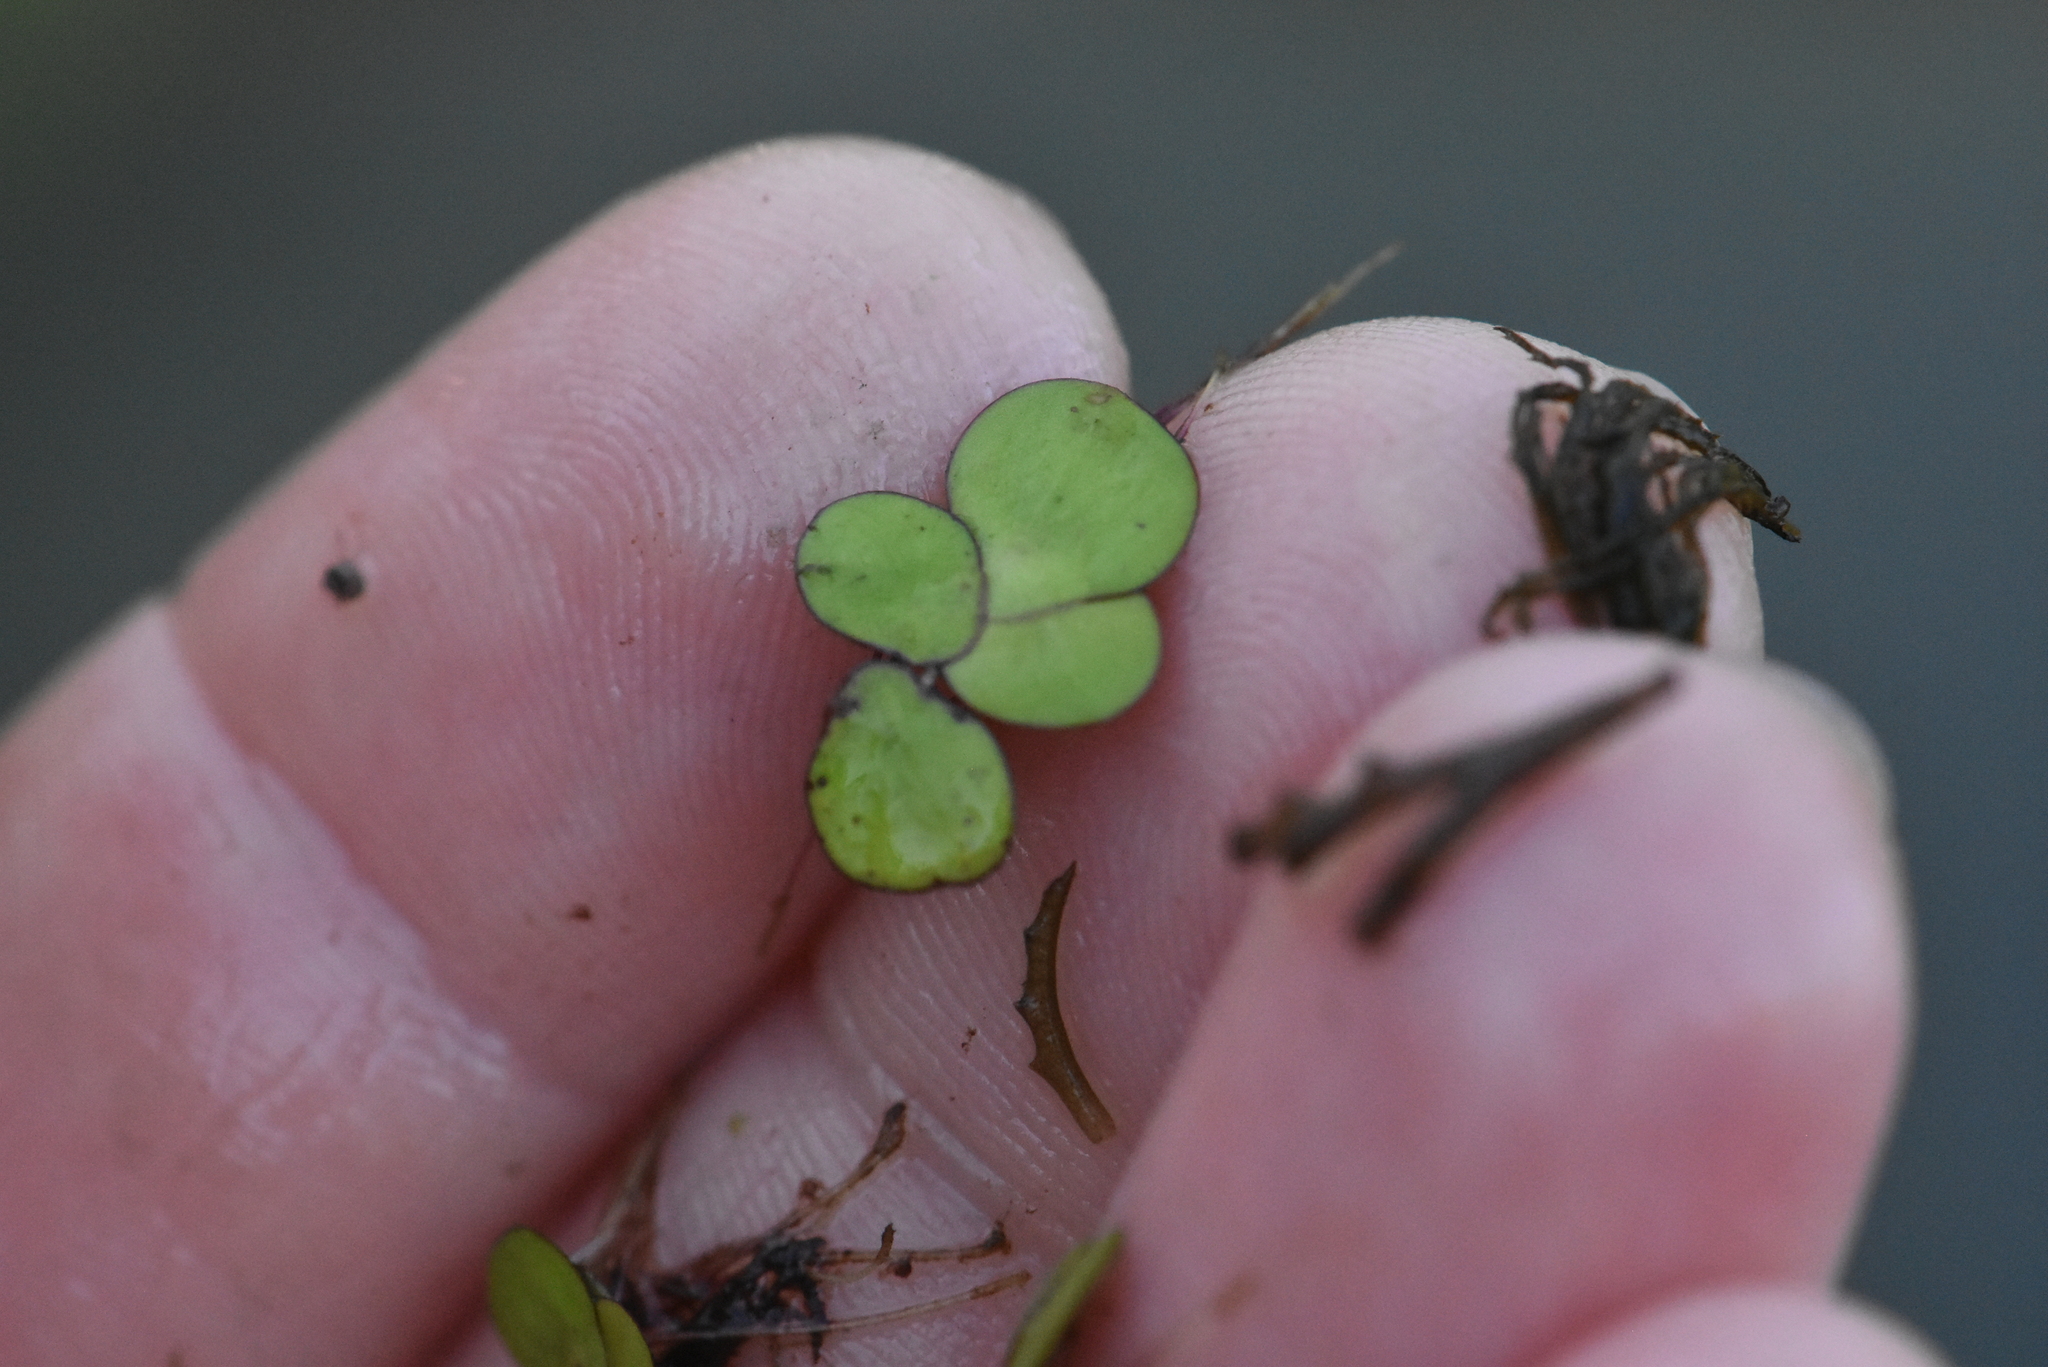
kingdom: Plantae
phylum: Tracheophyta
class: Liliopsida
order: Alismatales
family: Araceae
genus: Spirodela
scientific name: Spirodela polyrhiza
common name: Great duckweed
